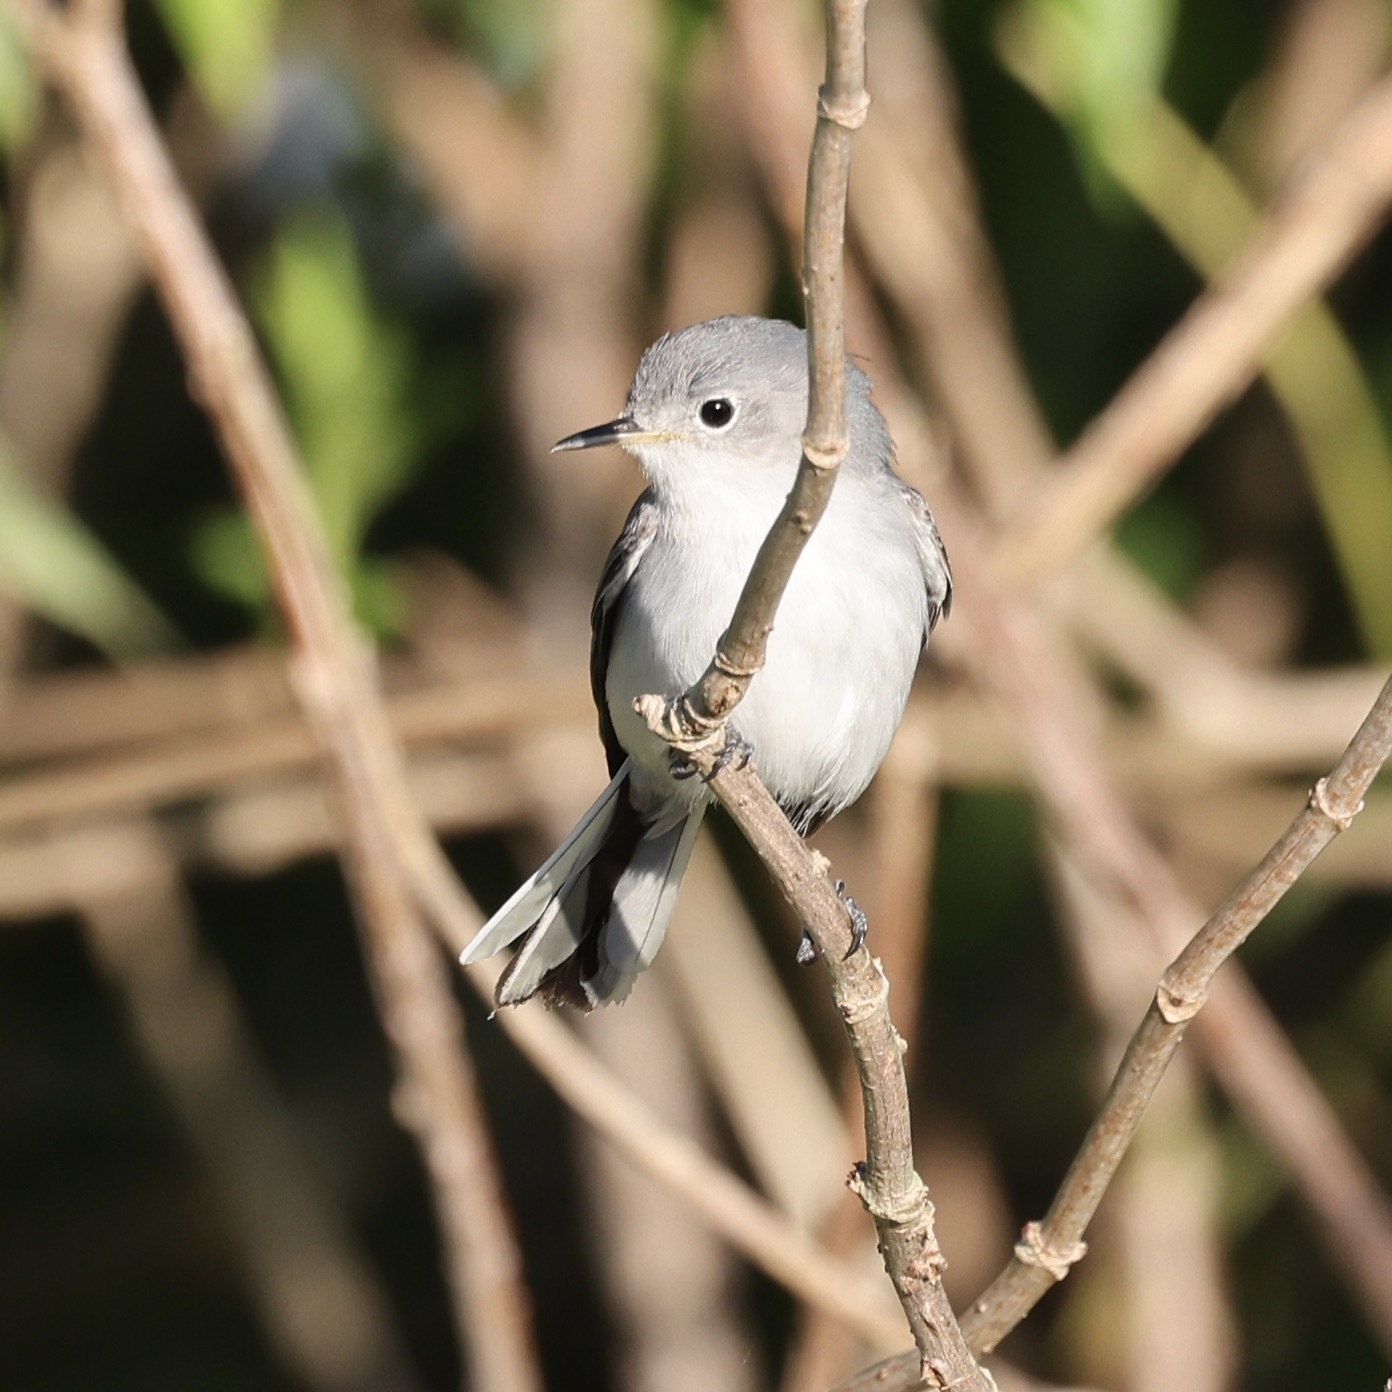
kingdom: Animalia
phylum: Chordata
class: Aves
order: Passeriformes
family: Polioptilidae
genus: Polioptila
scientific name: Polioptila caerulea
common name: Blue-gray gnatcatcher
